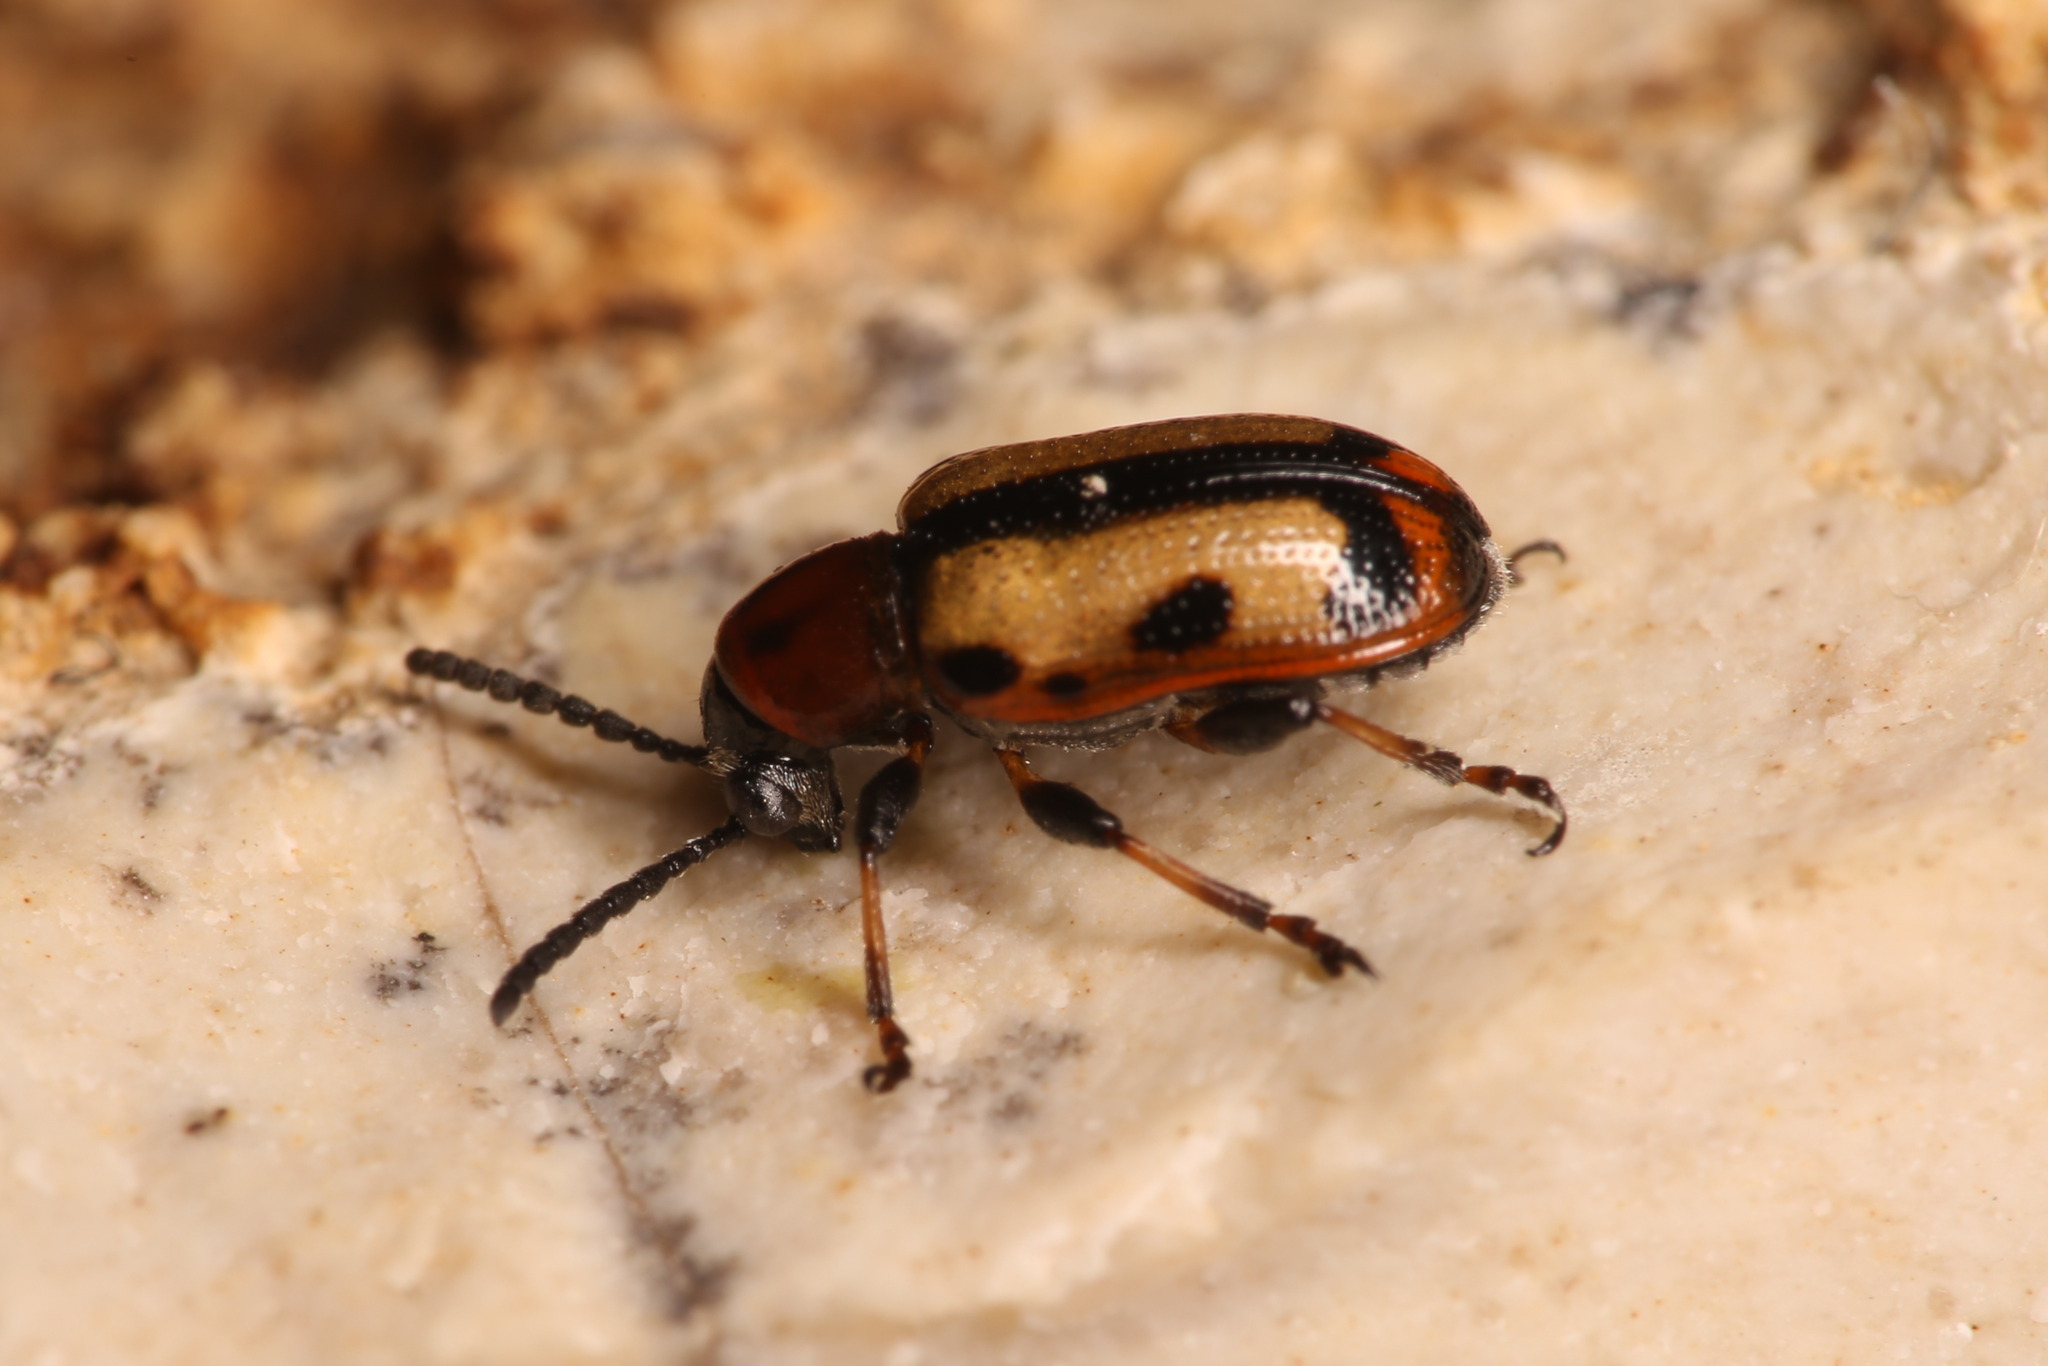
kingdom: Animalia
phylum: Arthropoda
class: Insecta
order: Coleoptera
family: Chrysomelidae
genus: Crioceris
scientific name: Crioceris paracenthesis
